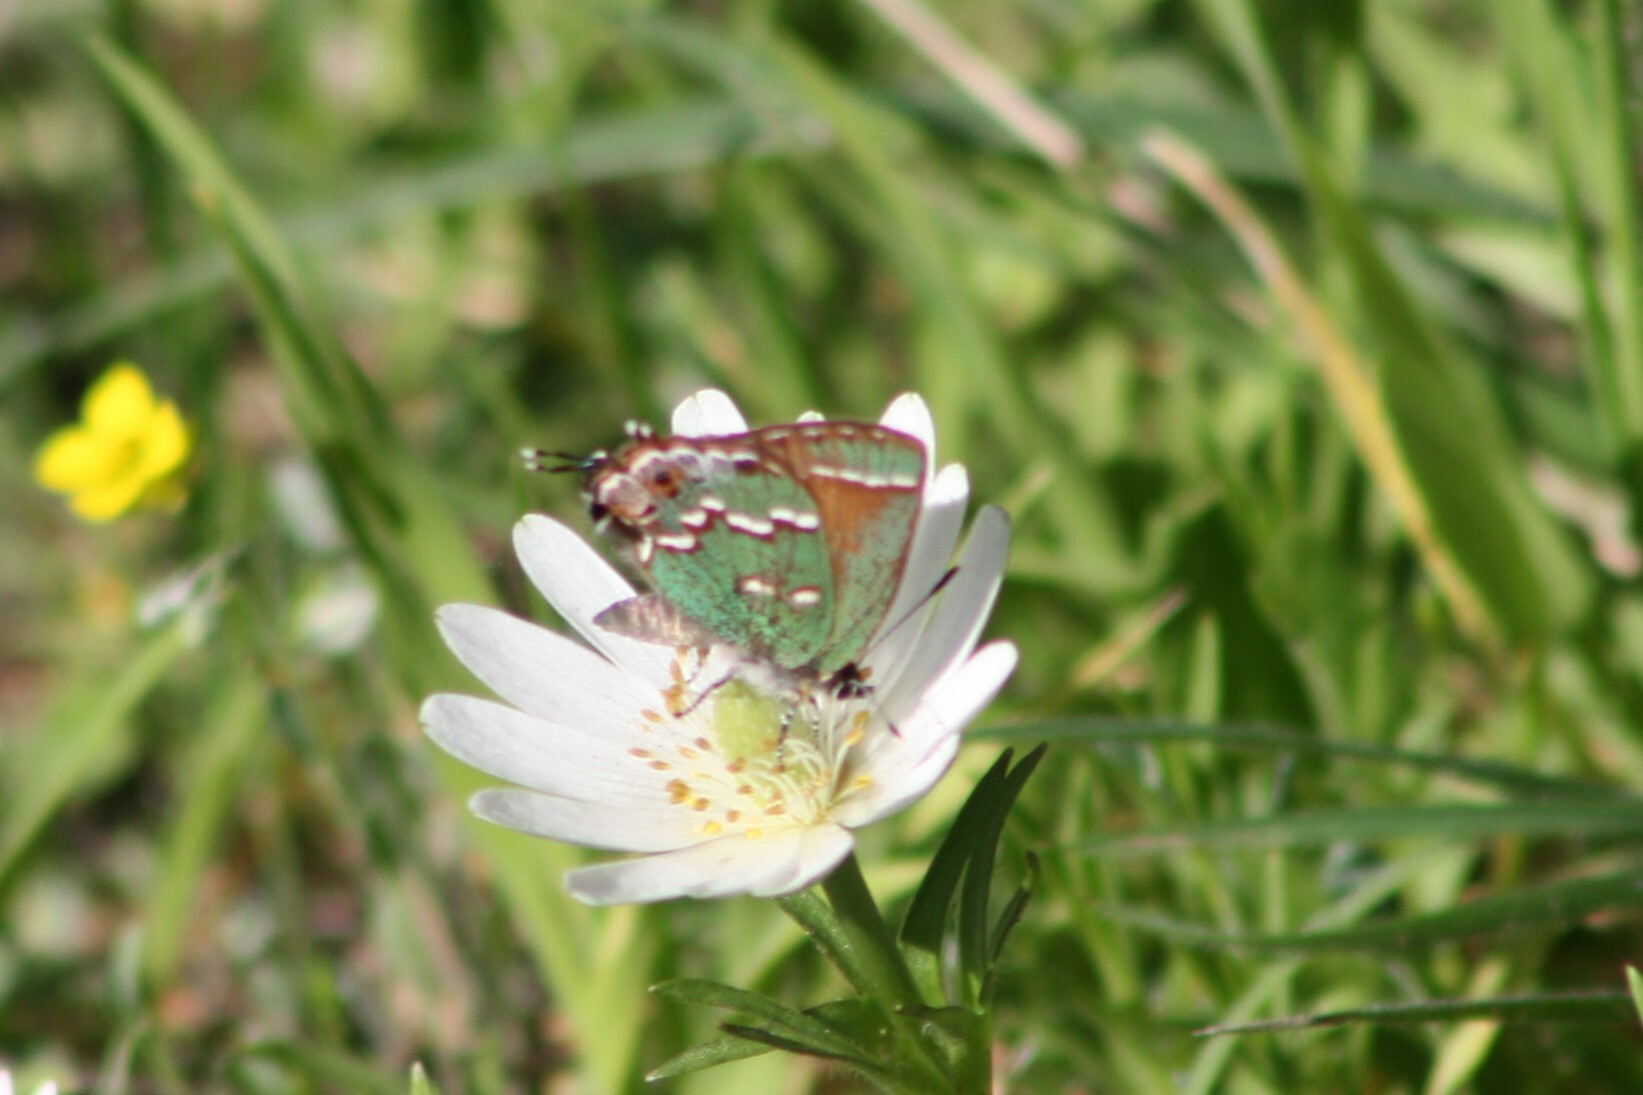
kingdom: Animalia
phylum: Arthropoda
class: Insecta
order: Lepidoptera
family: Lycaenidae
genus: Mitoura
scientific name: Mitoura gryneus
